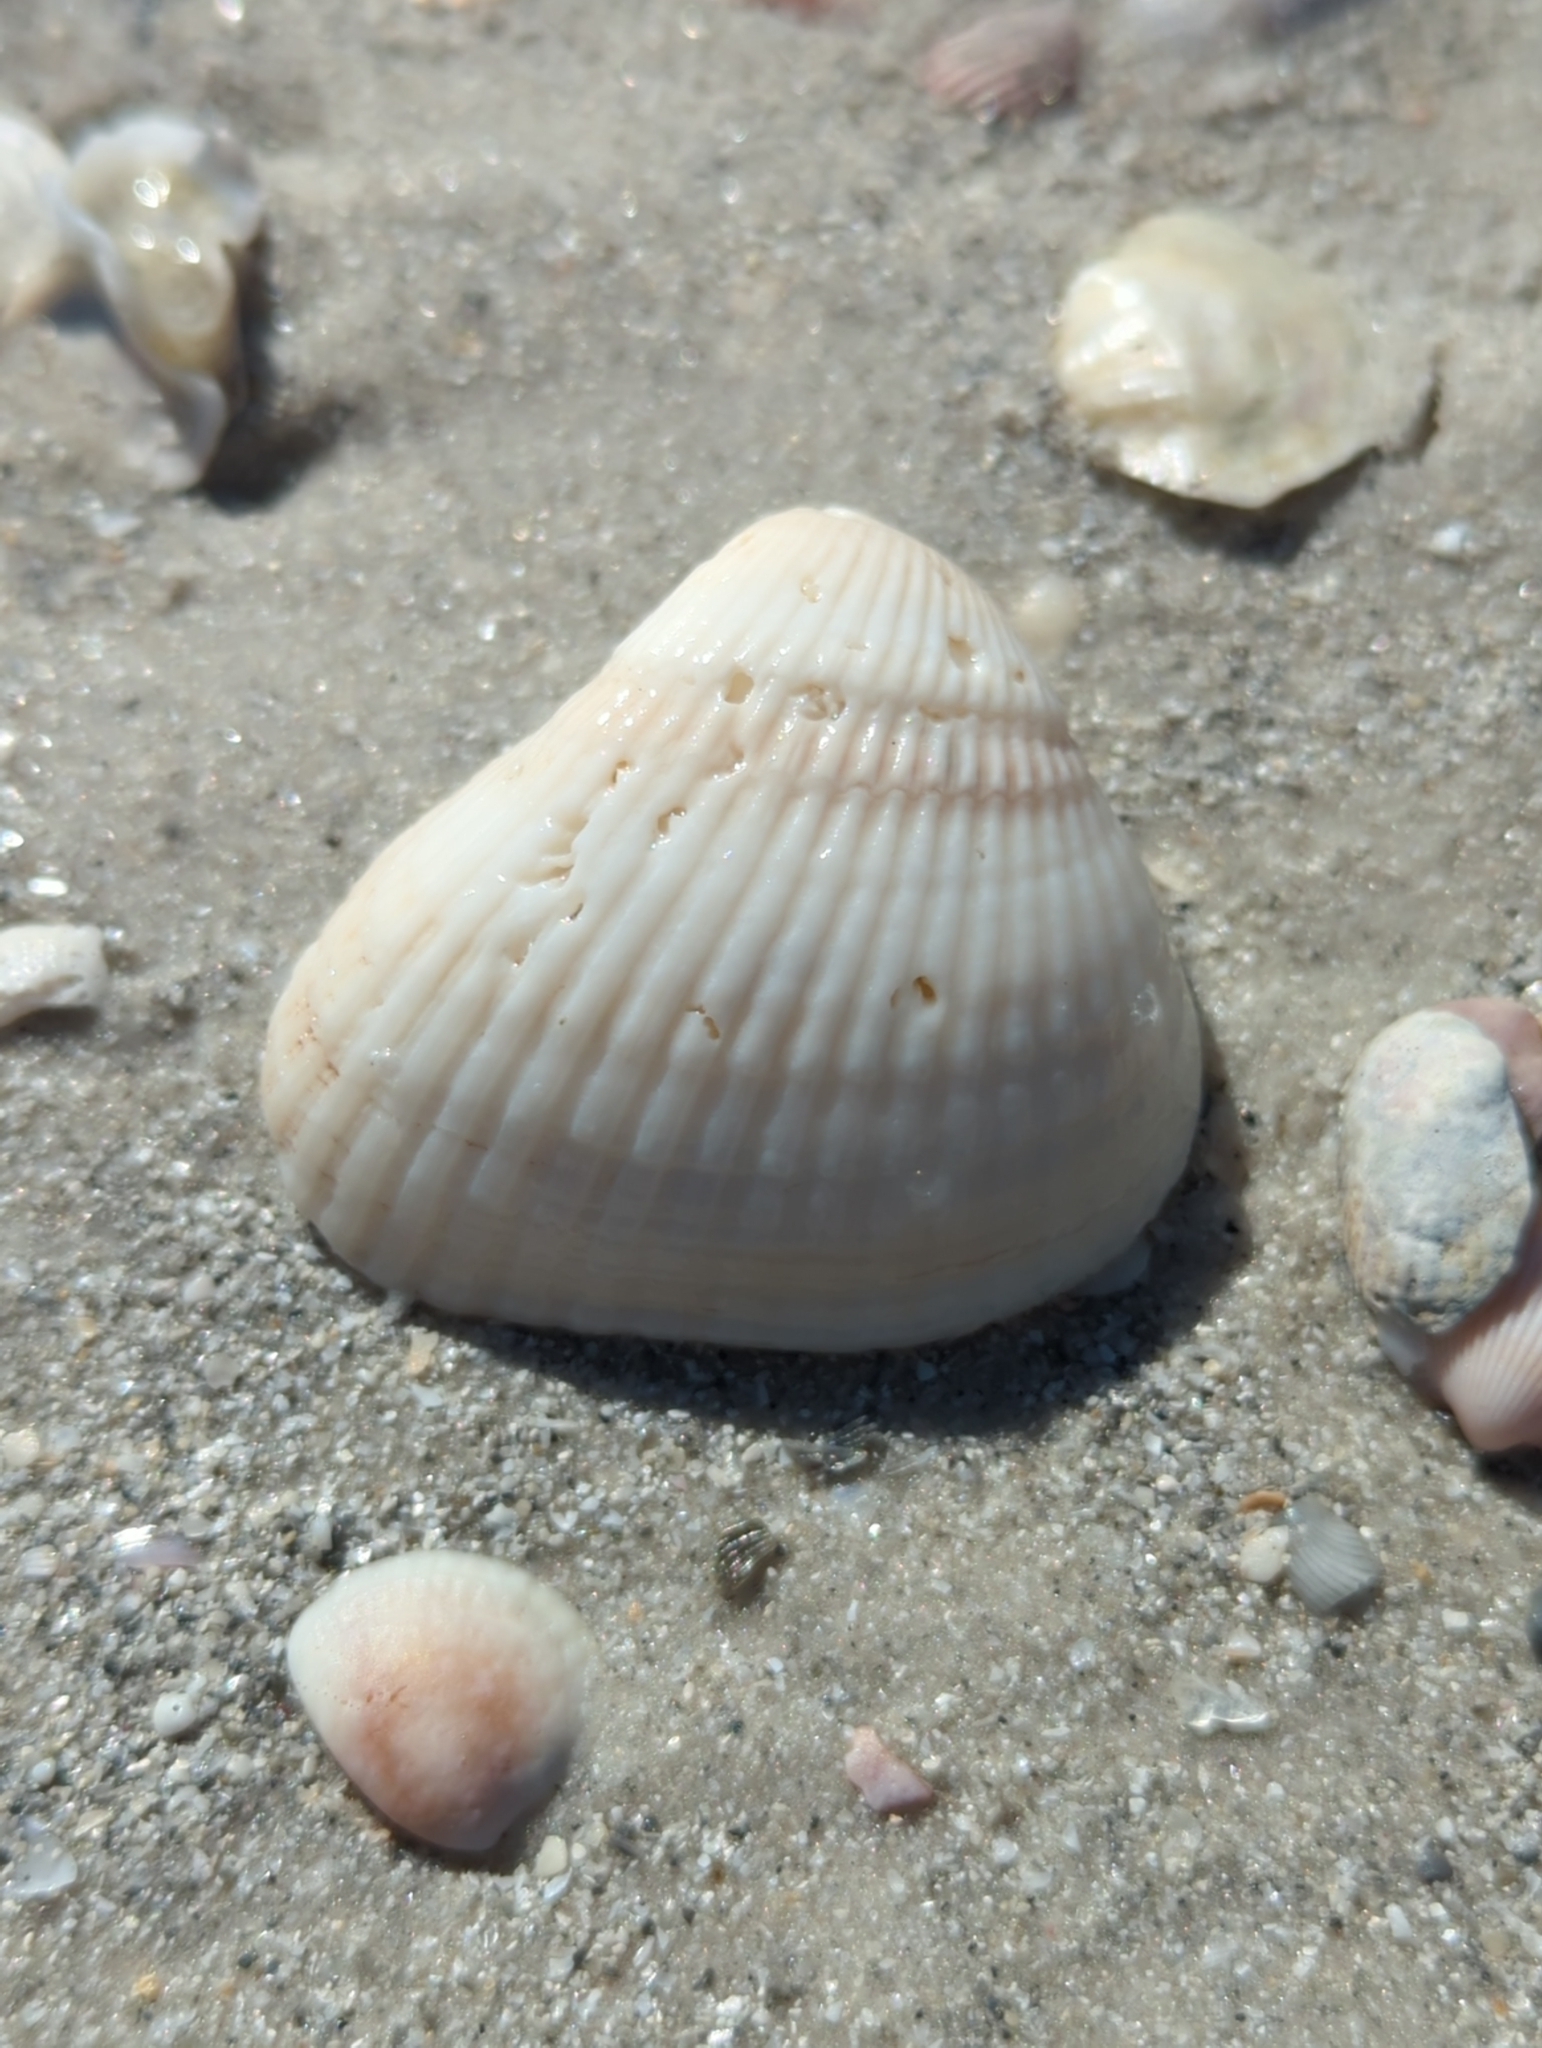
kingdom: Animalia
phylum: Mollusca
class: Bivalvia
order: Arcida
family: Noetiidae
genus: Noetia
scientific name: Noetia ponderosa
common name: Ponderous ark
